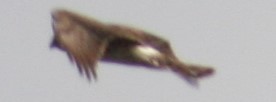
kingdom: Animalia
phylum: Chordata
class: Aves
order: Accipitriformes
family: Accipitridae
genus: Circus
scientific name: Circus cyaneus
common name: Hen harrier
